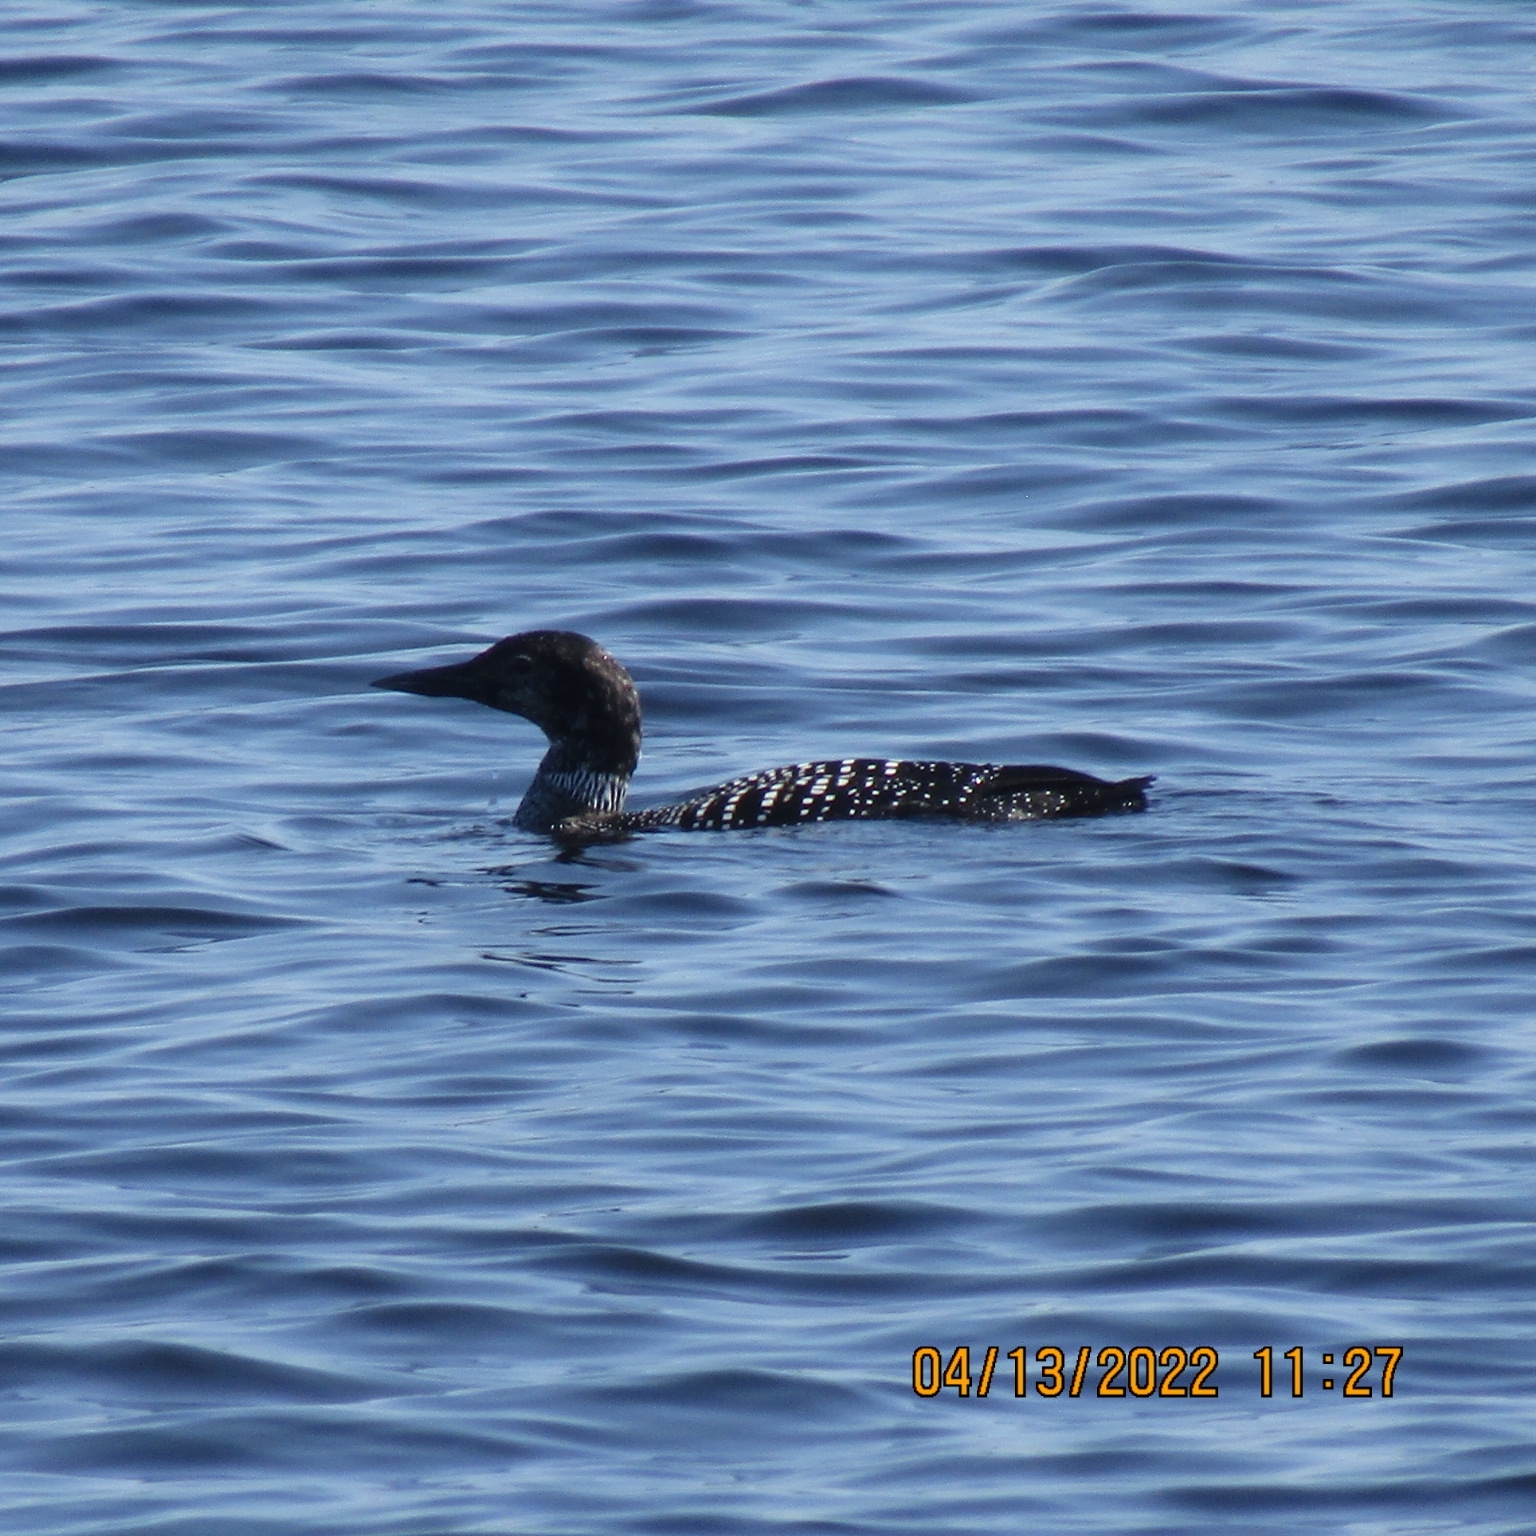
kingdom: Animalia
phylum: Chordata
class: Aves
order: Gaviiformes
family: Gaviidae
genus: Gavia
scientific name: Gavia immer
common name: Common loon
